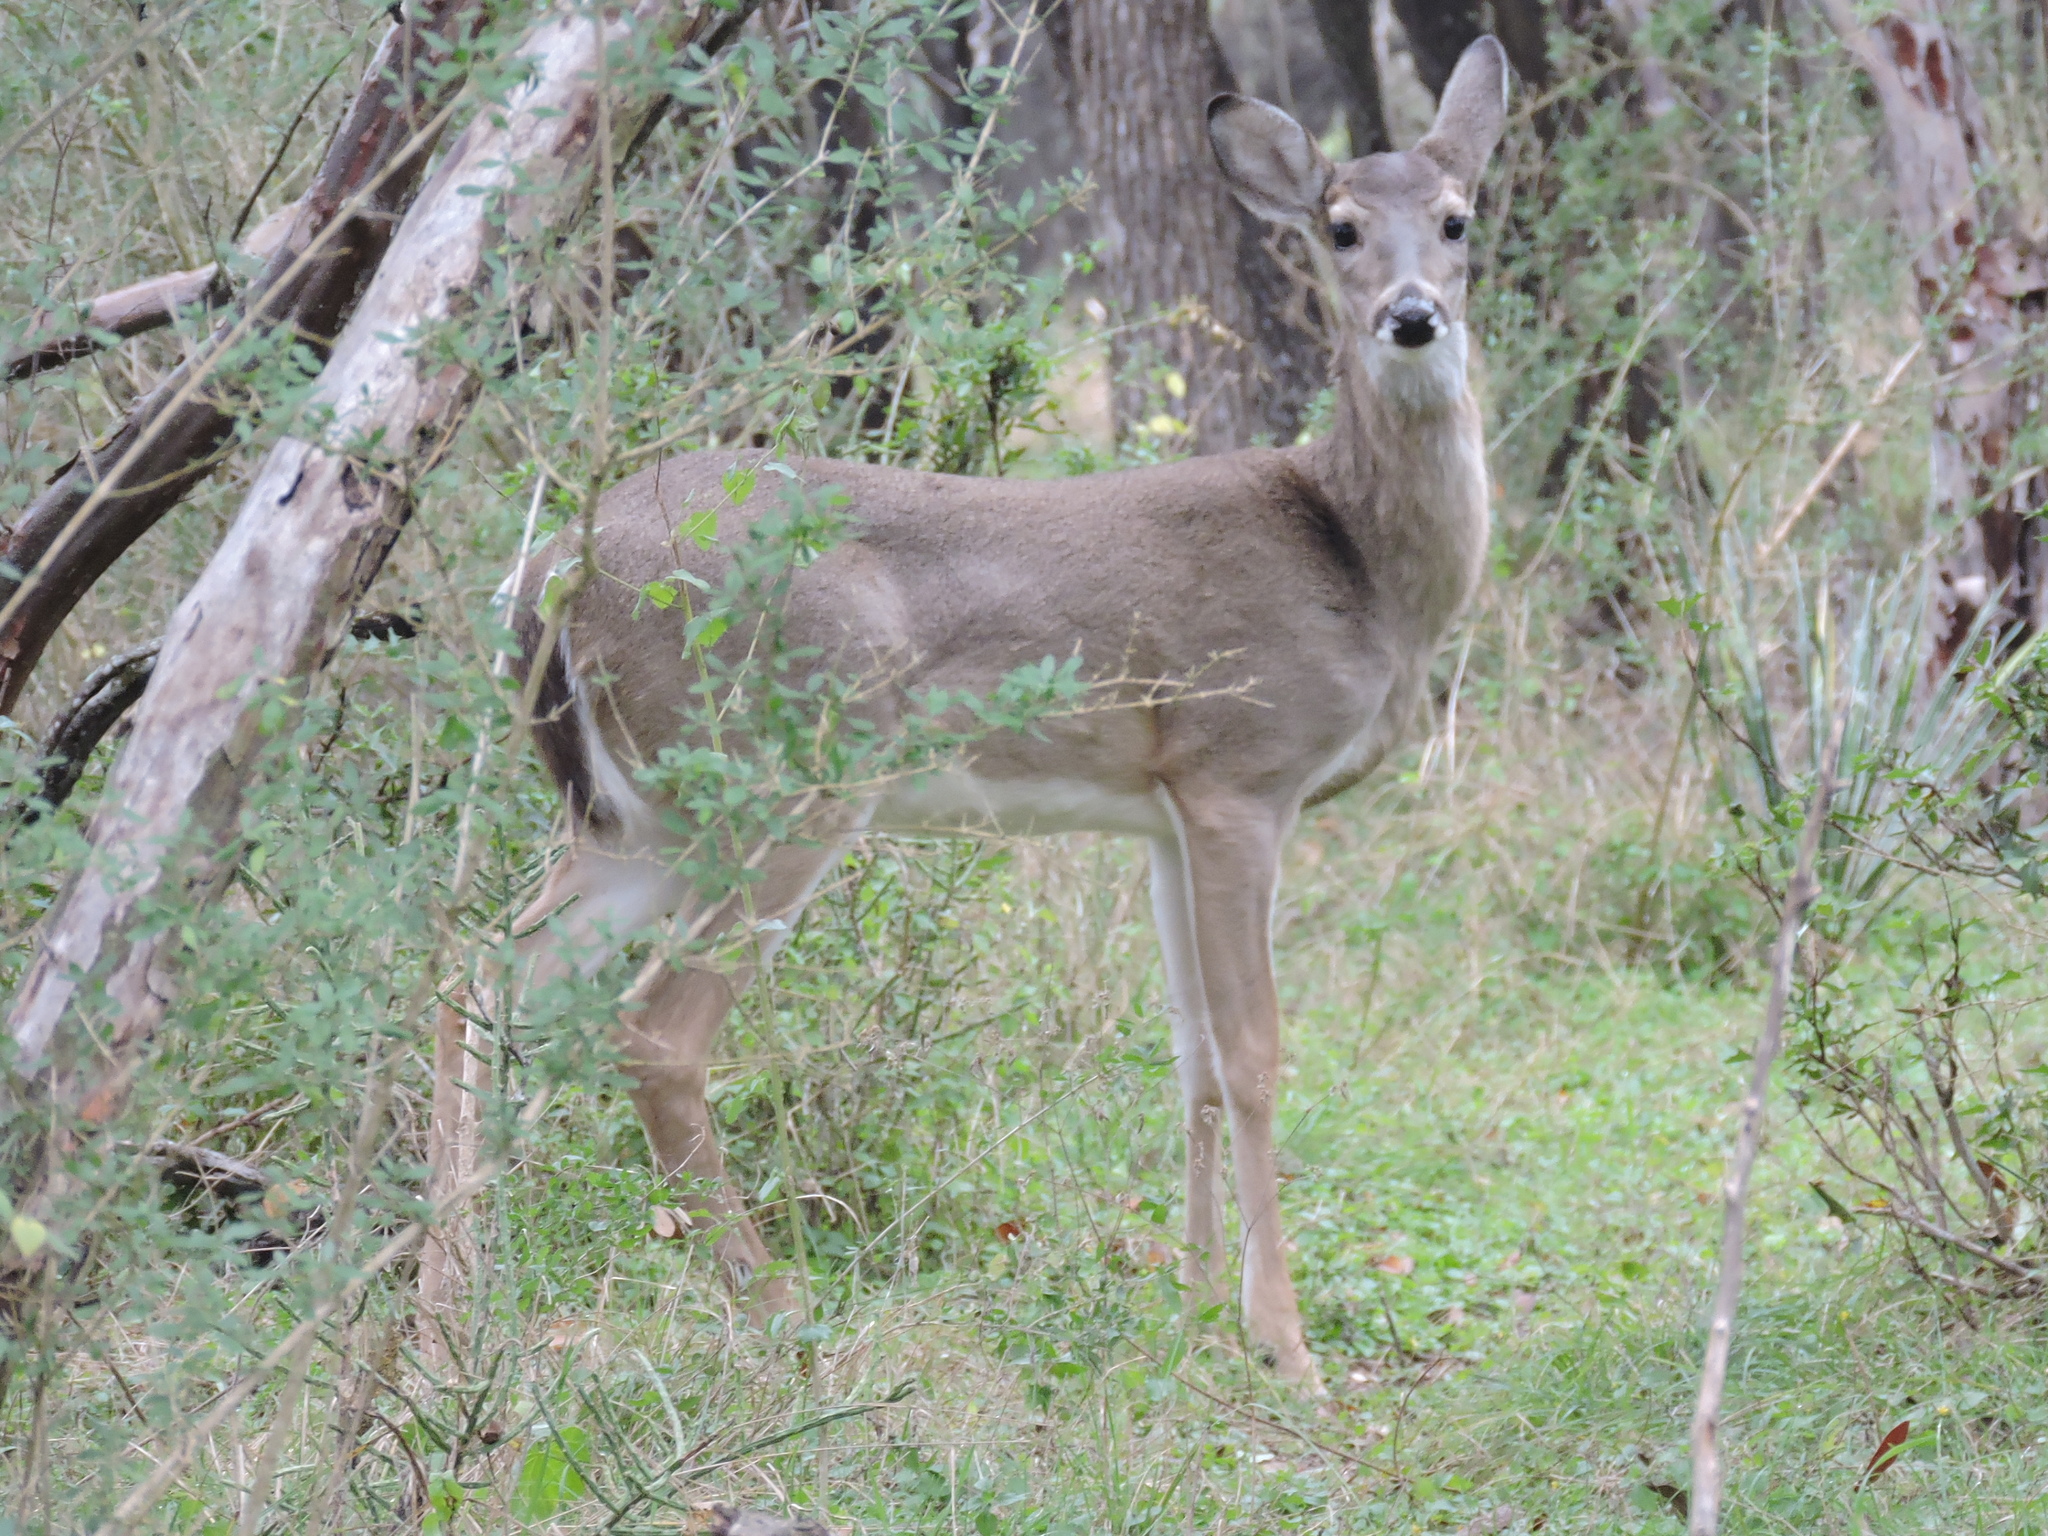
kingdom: Animalia
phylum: Chordata
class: Mammalia
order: Artiodactyla
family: Cervidae
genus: Odocoileus
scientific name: Odocoileus virginianus
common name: White-tailed deer
